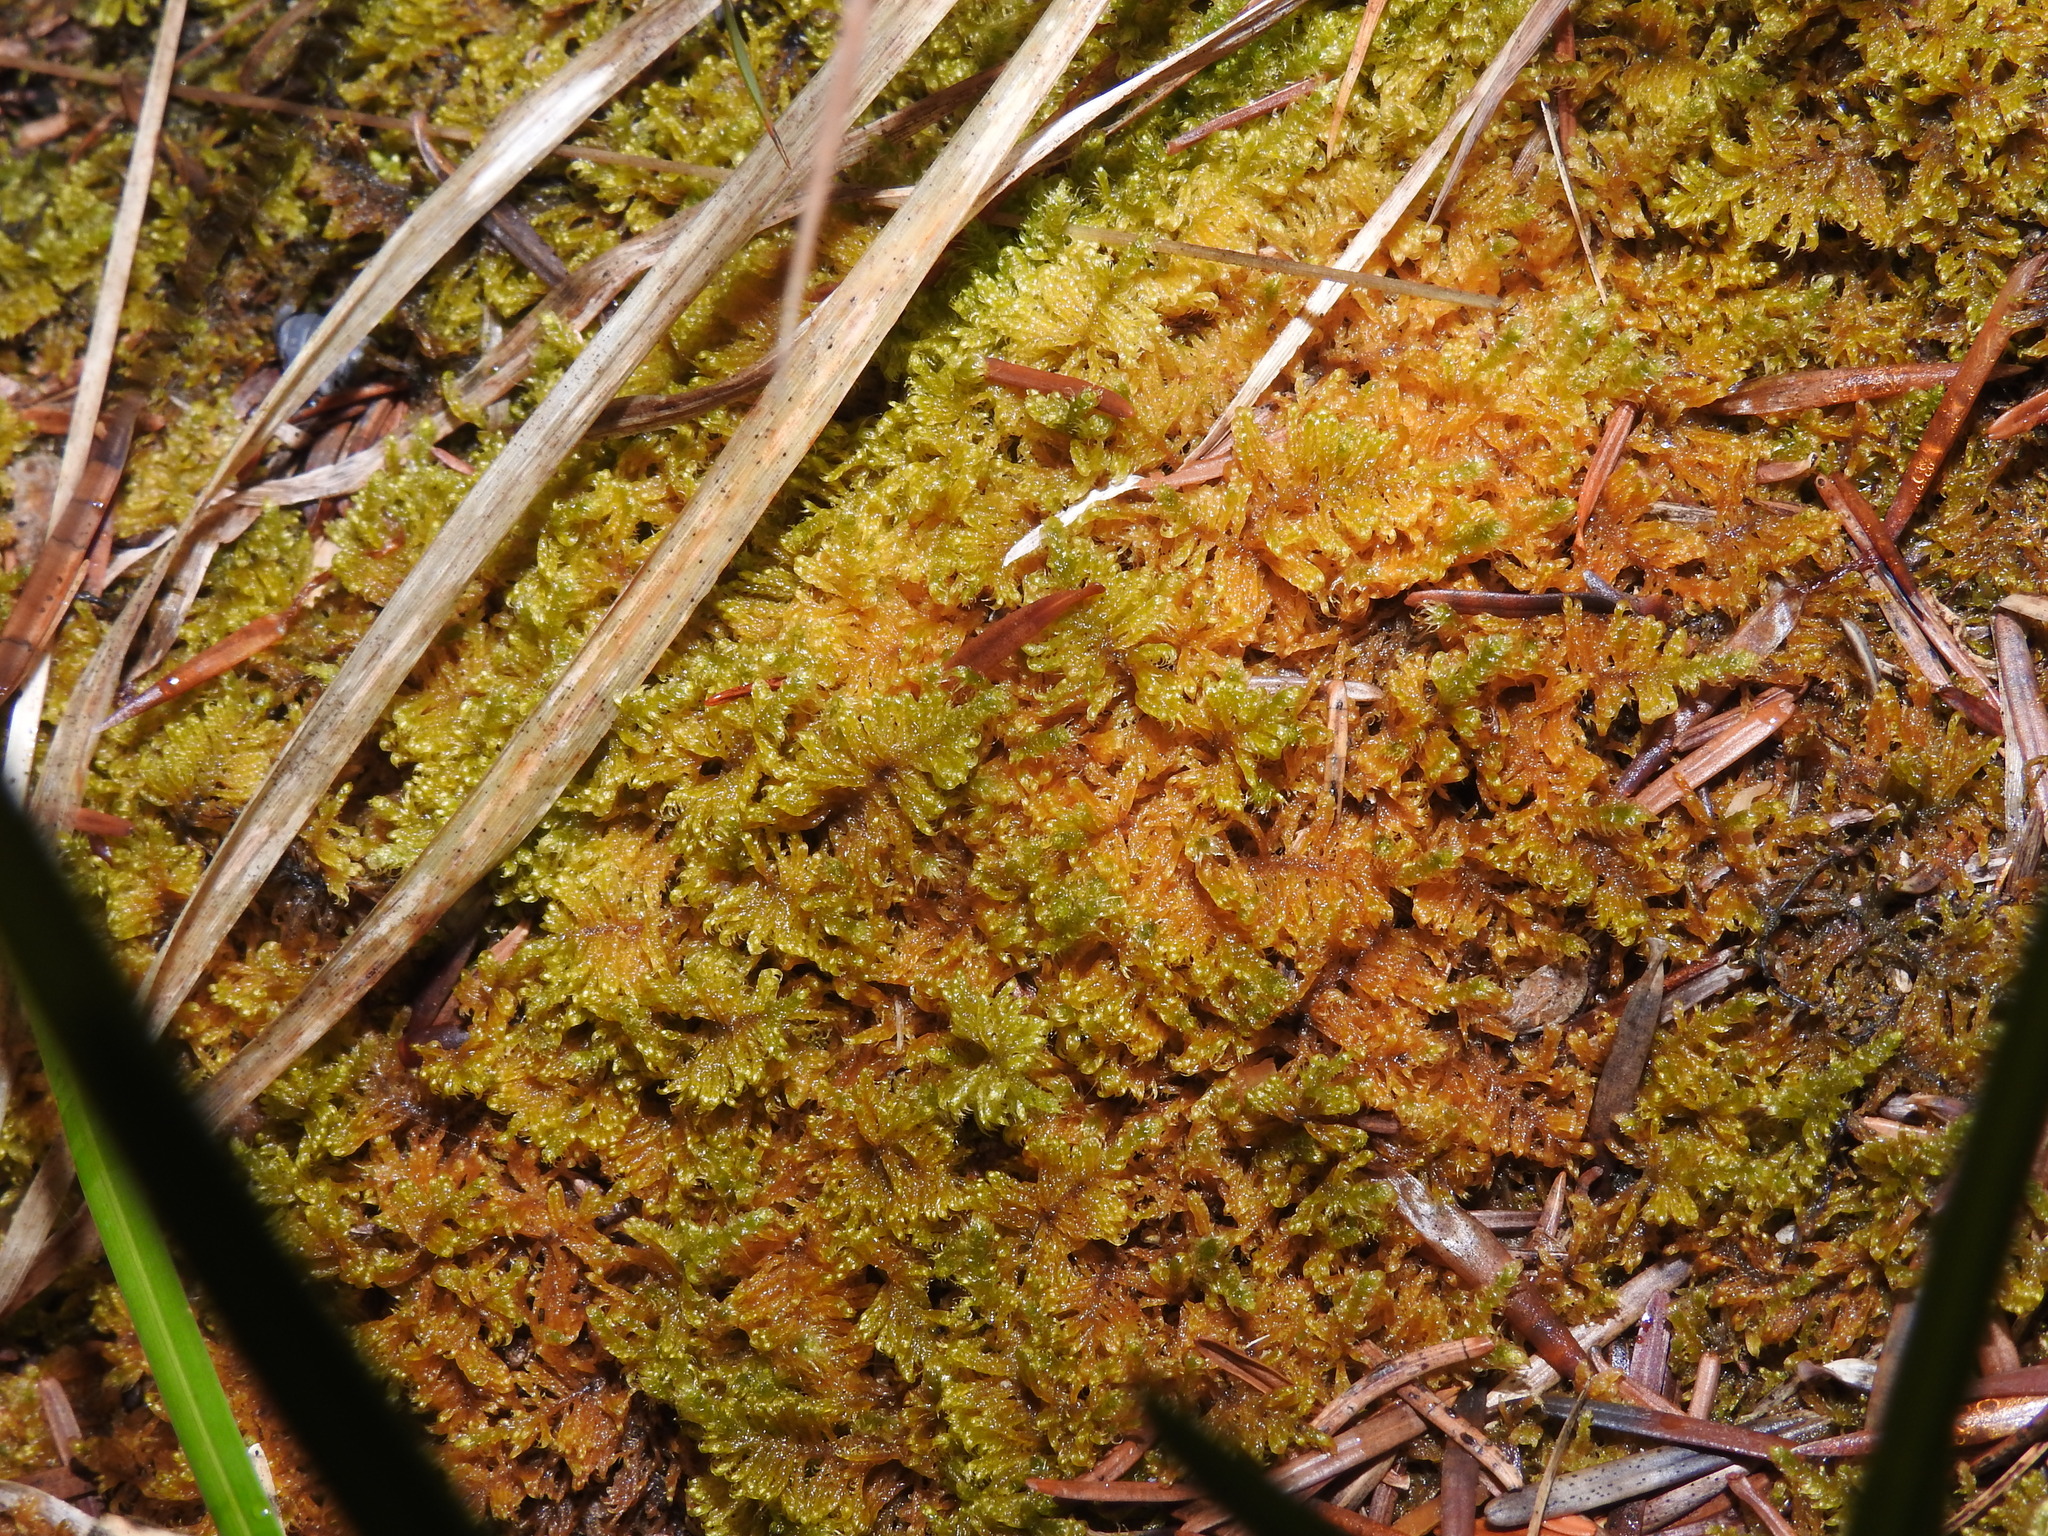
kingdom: Plantae
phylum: Bryophyta
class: Bryopsida
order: Hypnales
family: Myuriaceae
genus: Ctenidium
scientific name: Ctenidium molluscum
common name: Chalk comb-moss
